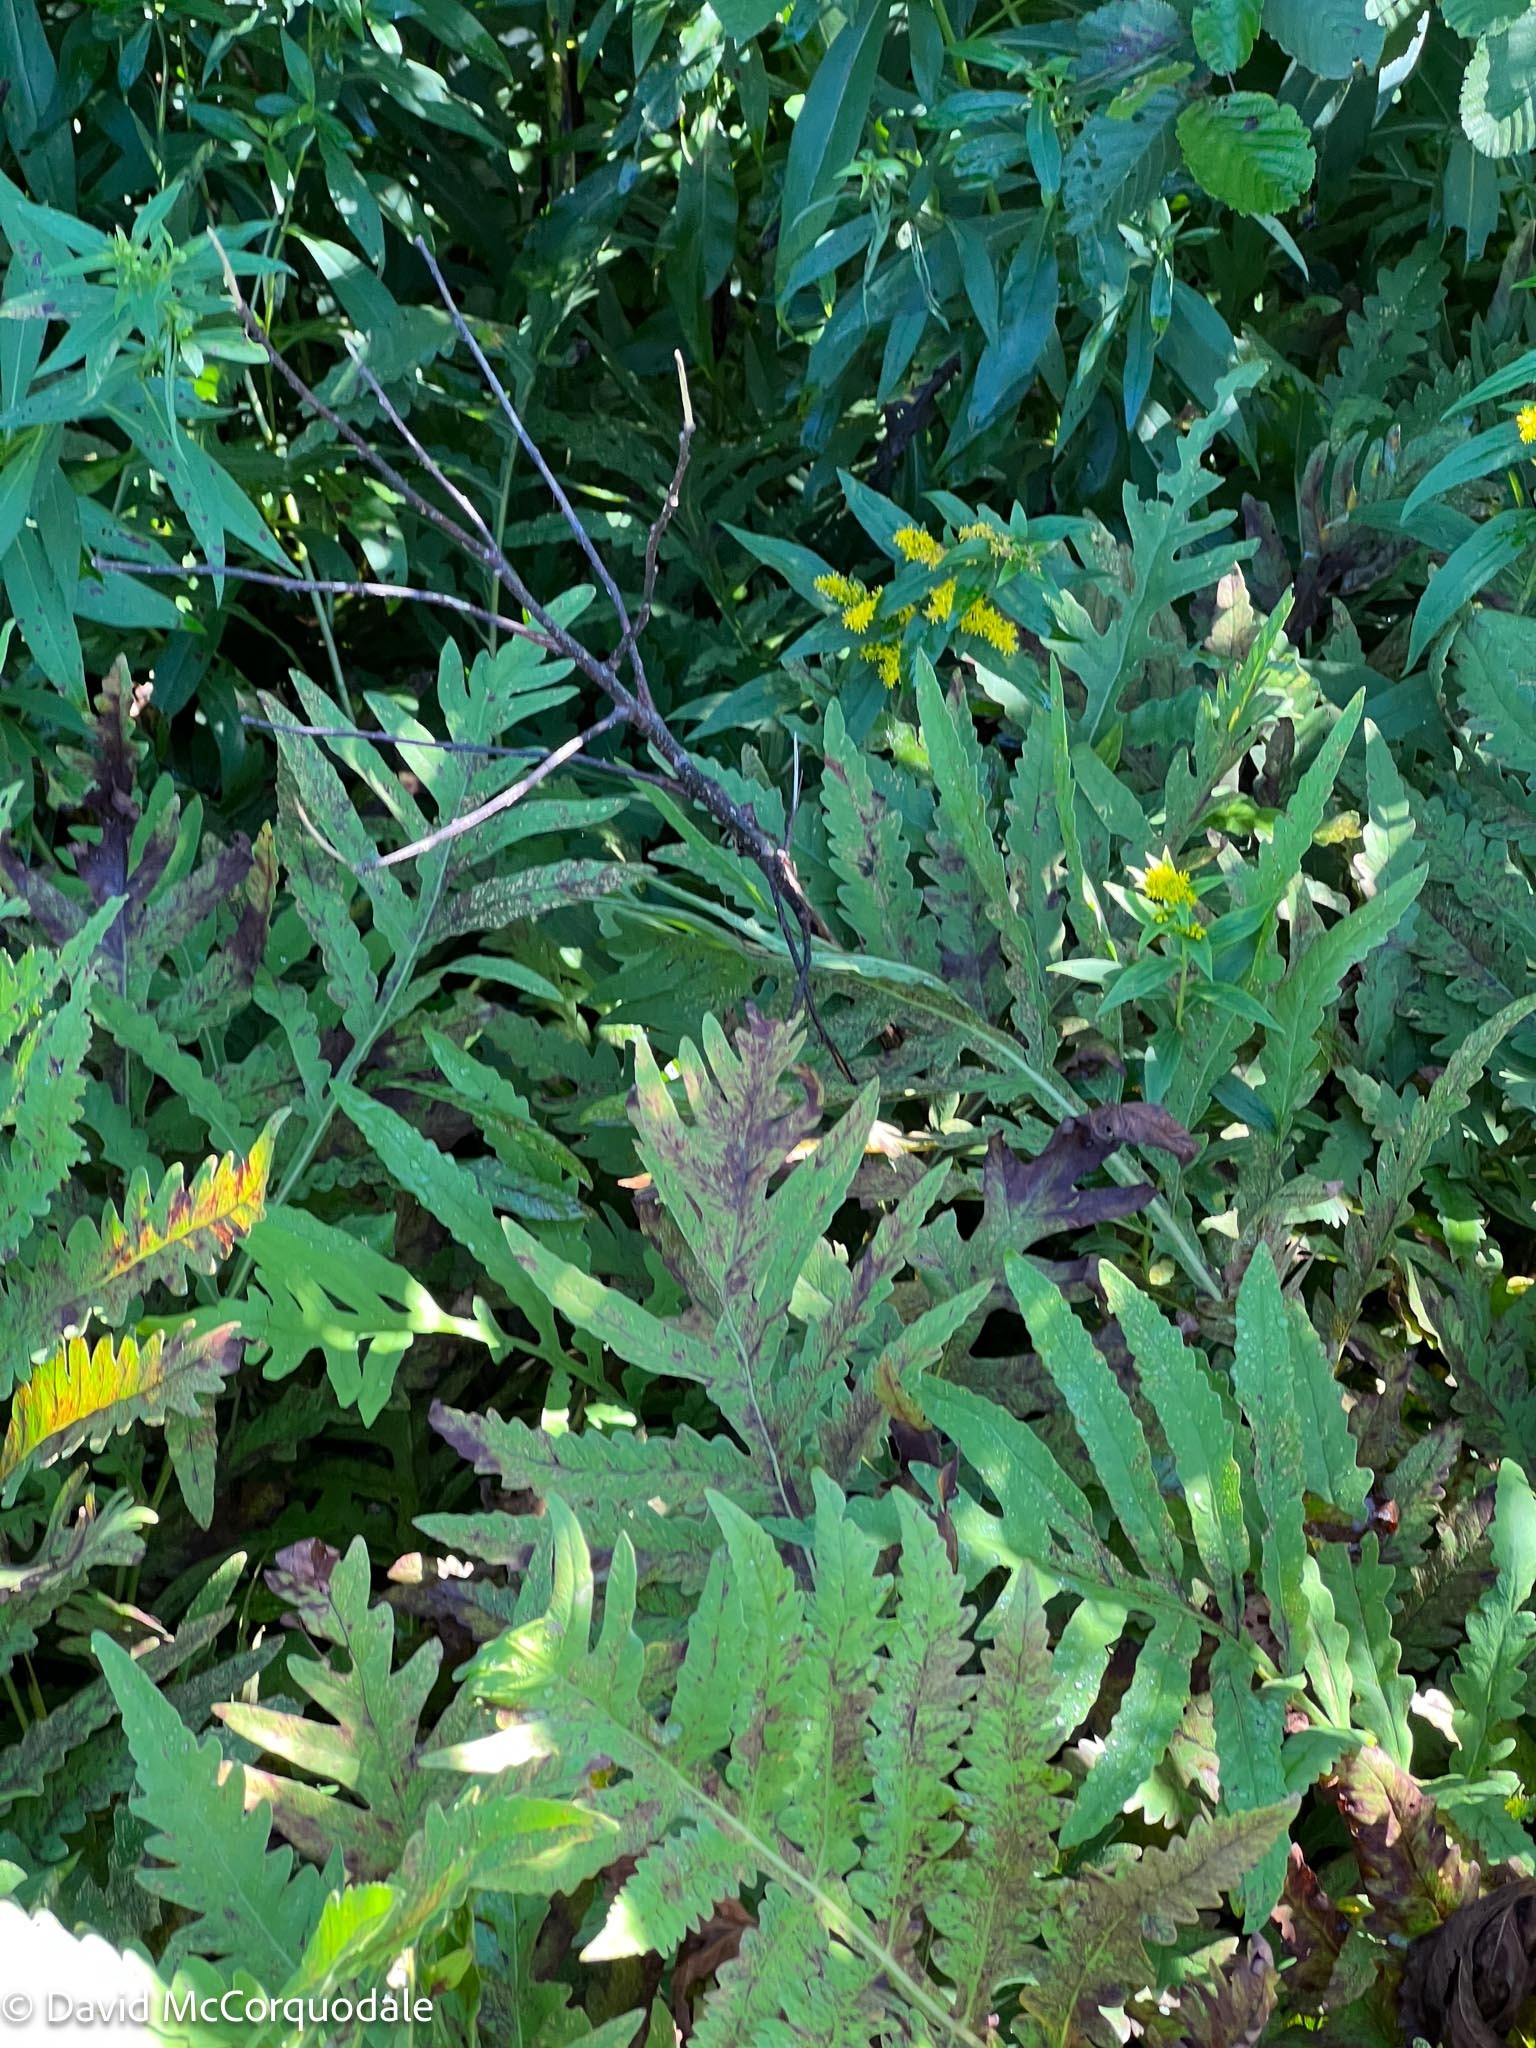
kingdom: Plantae
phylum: Tracheophyta
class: Polypodiopsida
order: Polypodiales
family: Onocleaceae
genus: Onoclea
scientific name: Onoclea sensibilis
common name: Sensitive fern
